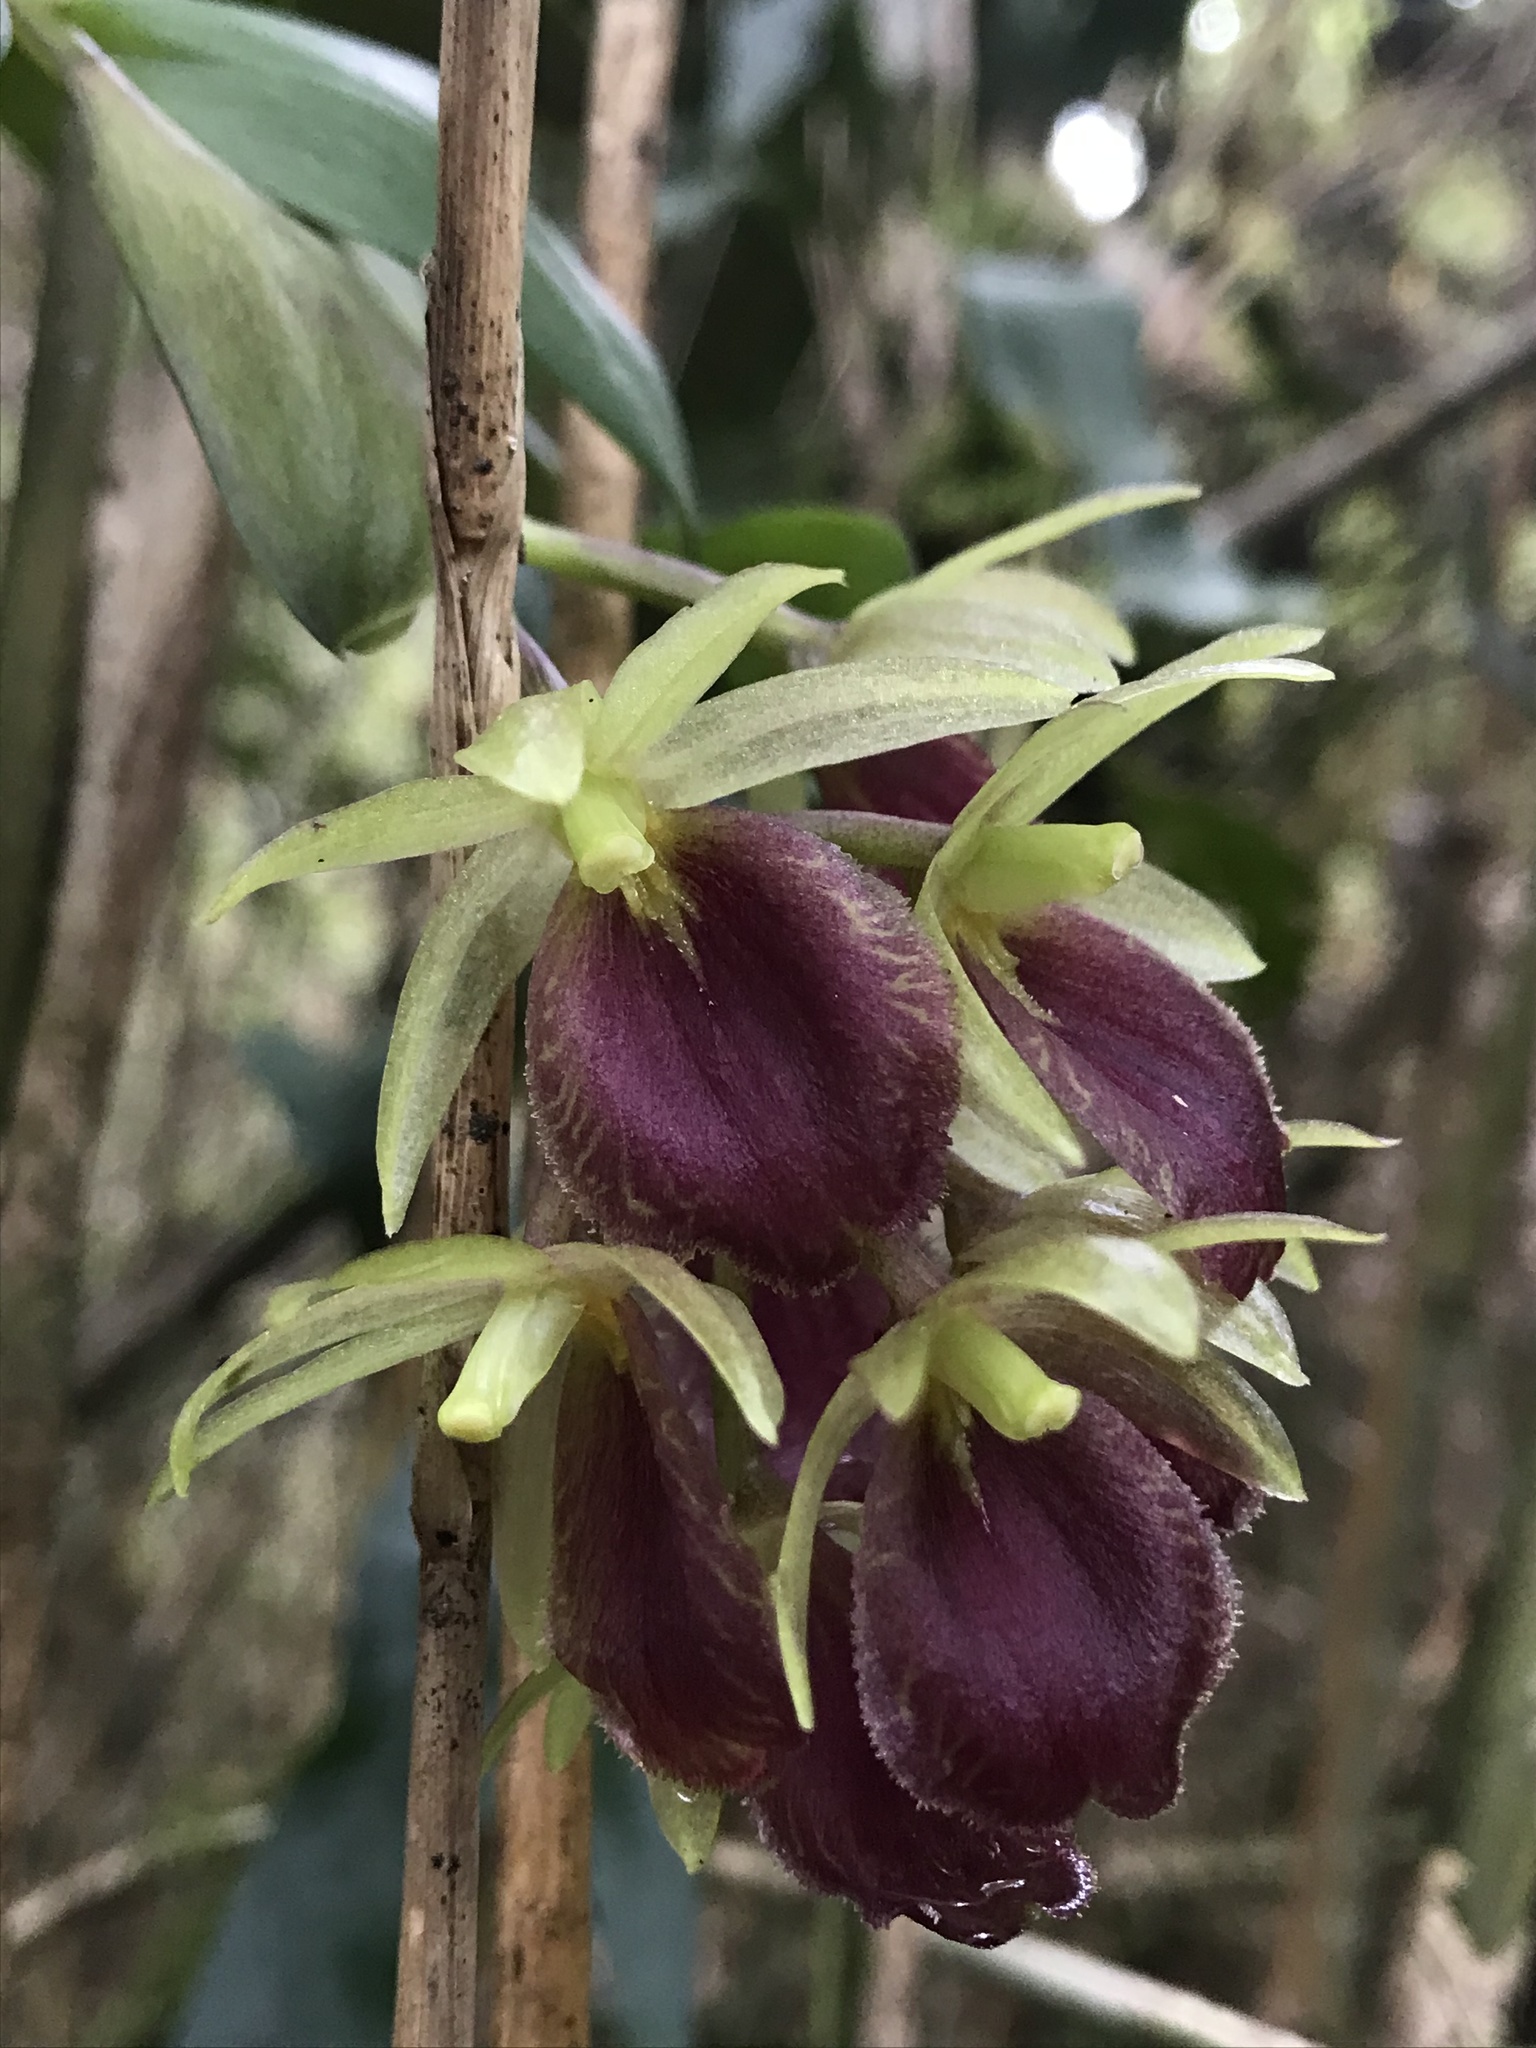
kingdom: Plantae
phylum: Tracheophyta
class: Liliopsida
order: Asparagales
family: Orchidaceae
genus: Epidendrum
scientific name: Epidendrum megalospathum
